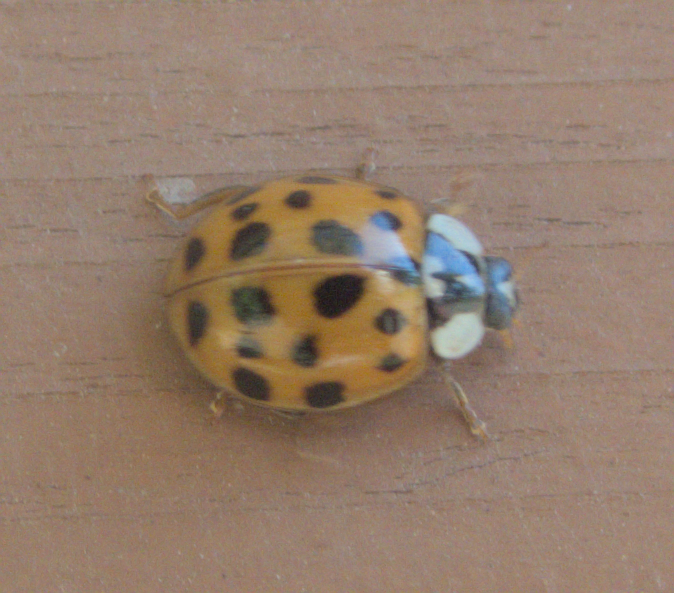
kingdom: Animalia
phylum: Arthropoda
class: Insecta
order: Coleoptera
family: Coccinellidae
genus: Harmonia
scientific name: Harmonia axyridis
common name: Harlequin ladybird
